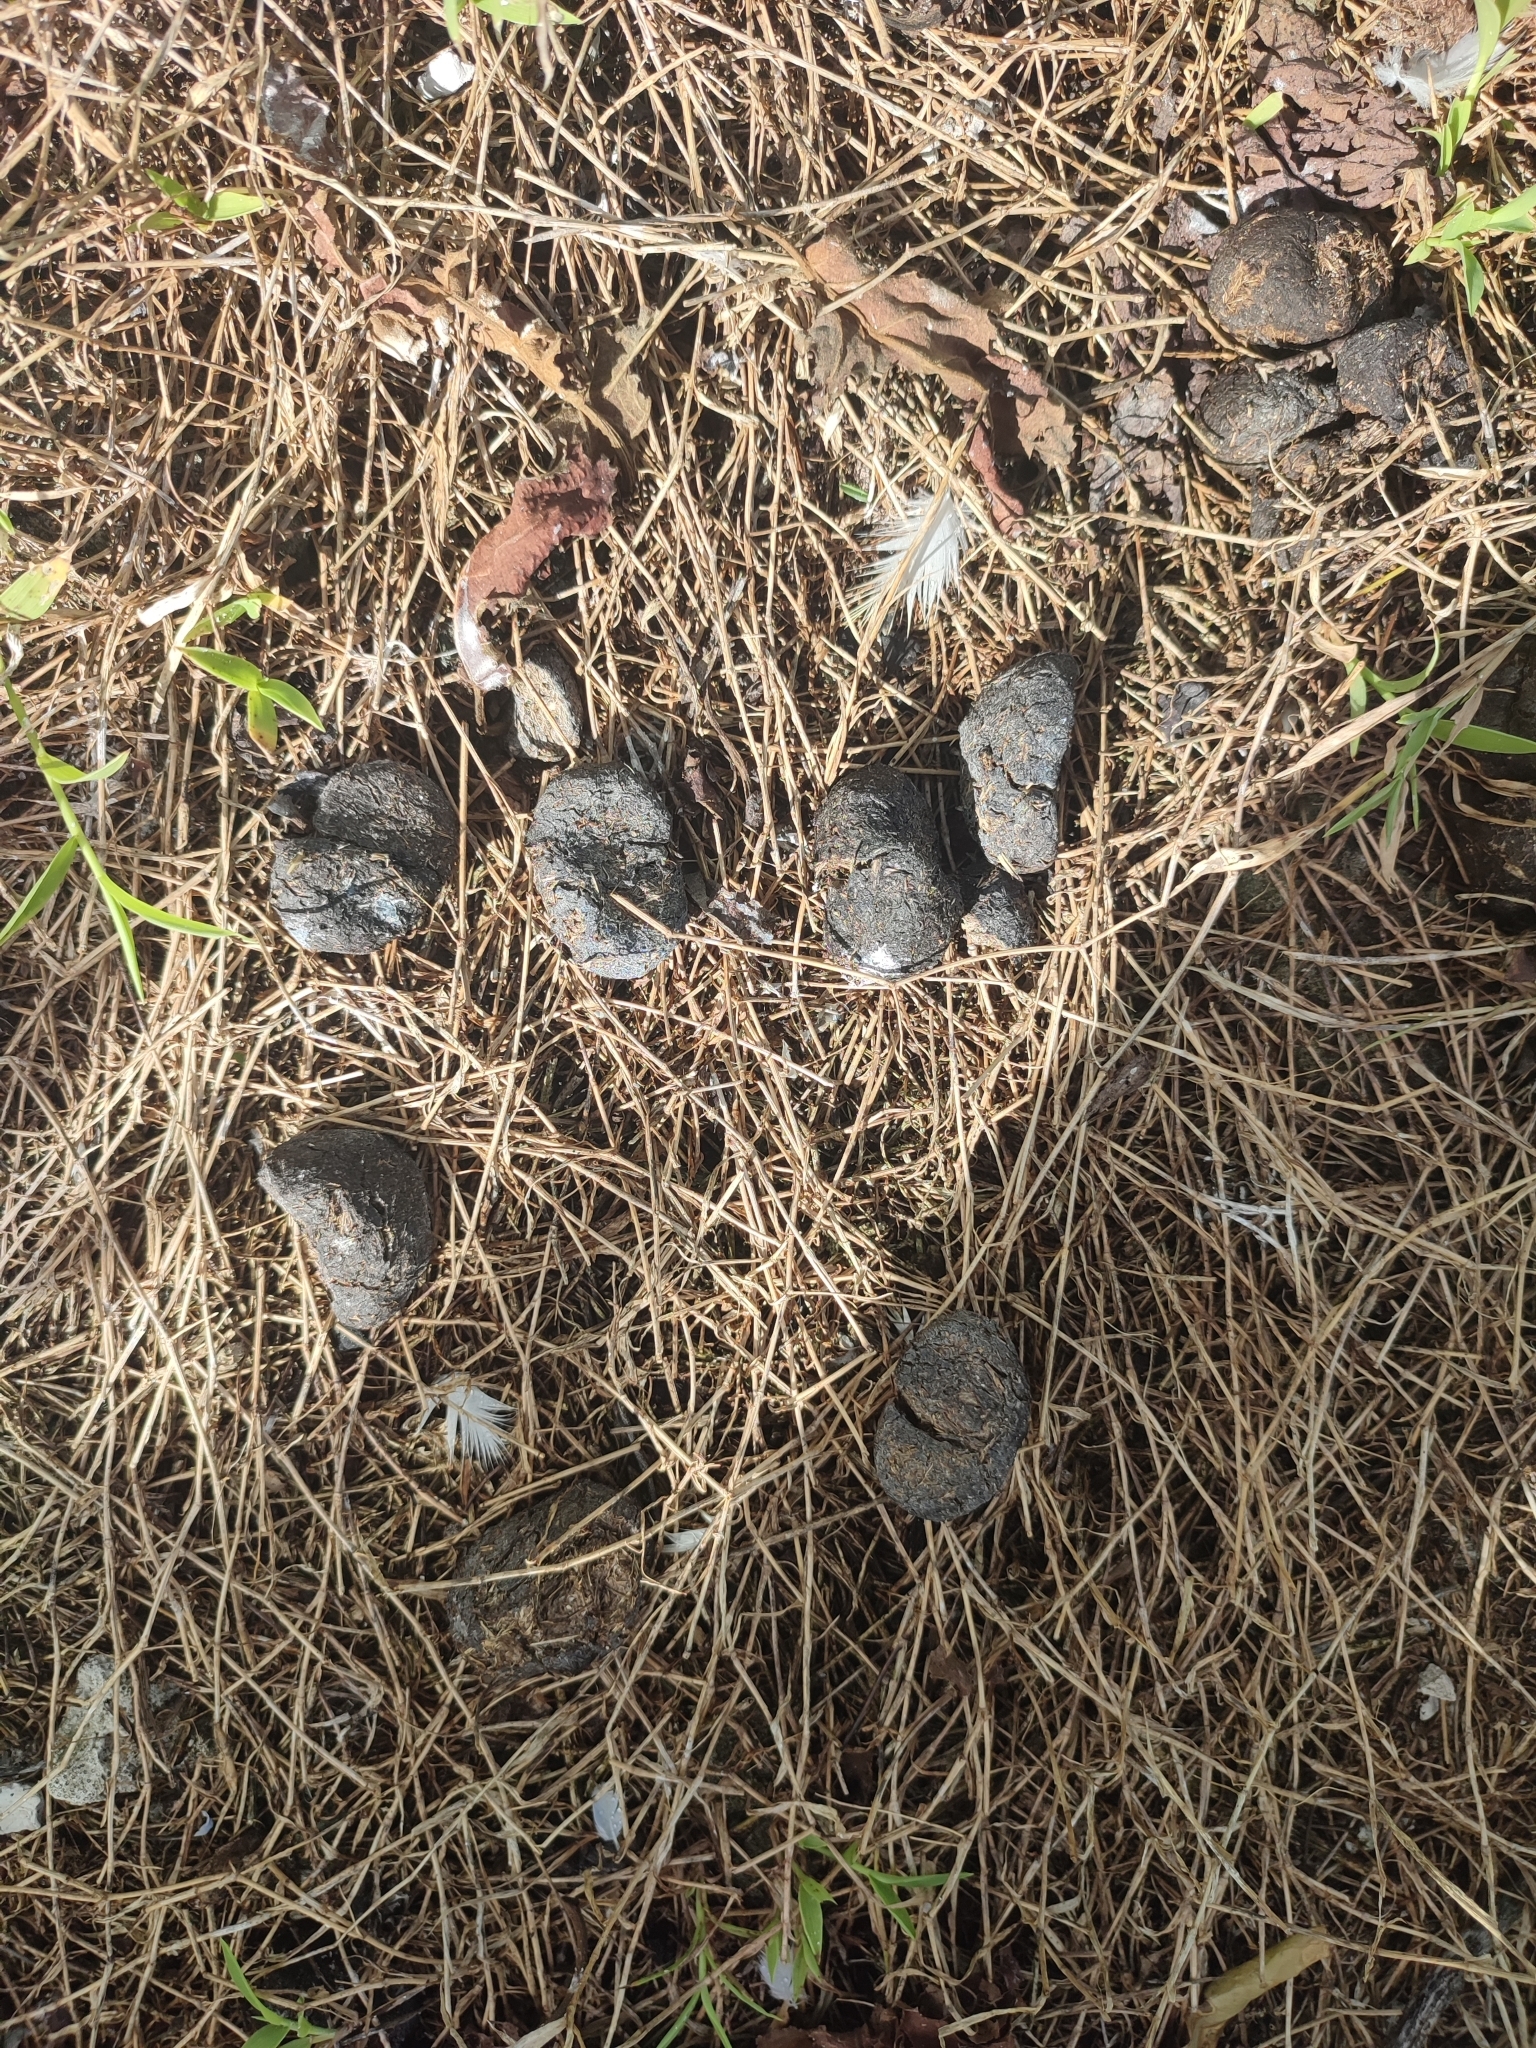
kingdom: Animalia
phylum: Chordata
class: Mammalia
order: Perissodactyla
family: Equidae
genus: Equus
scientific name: Equus asinus
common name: Ass
